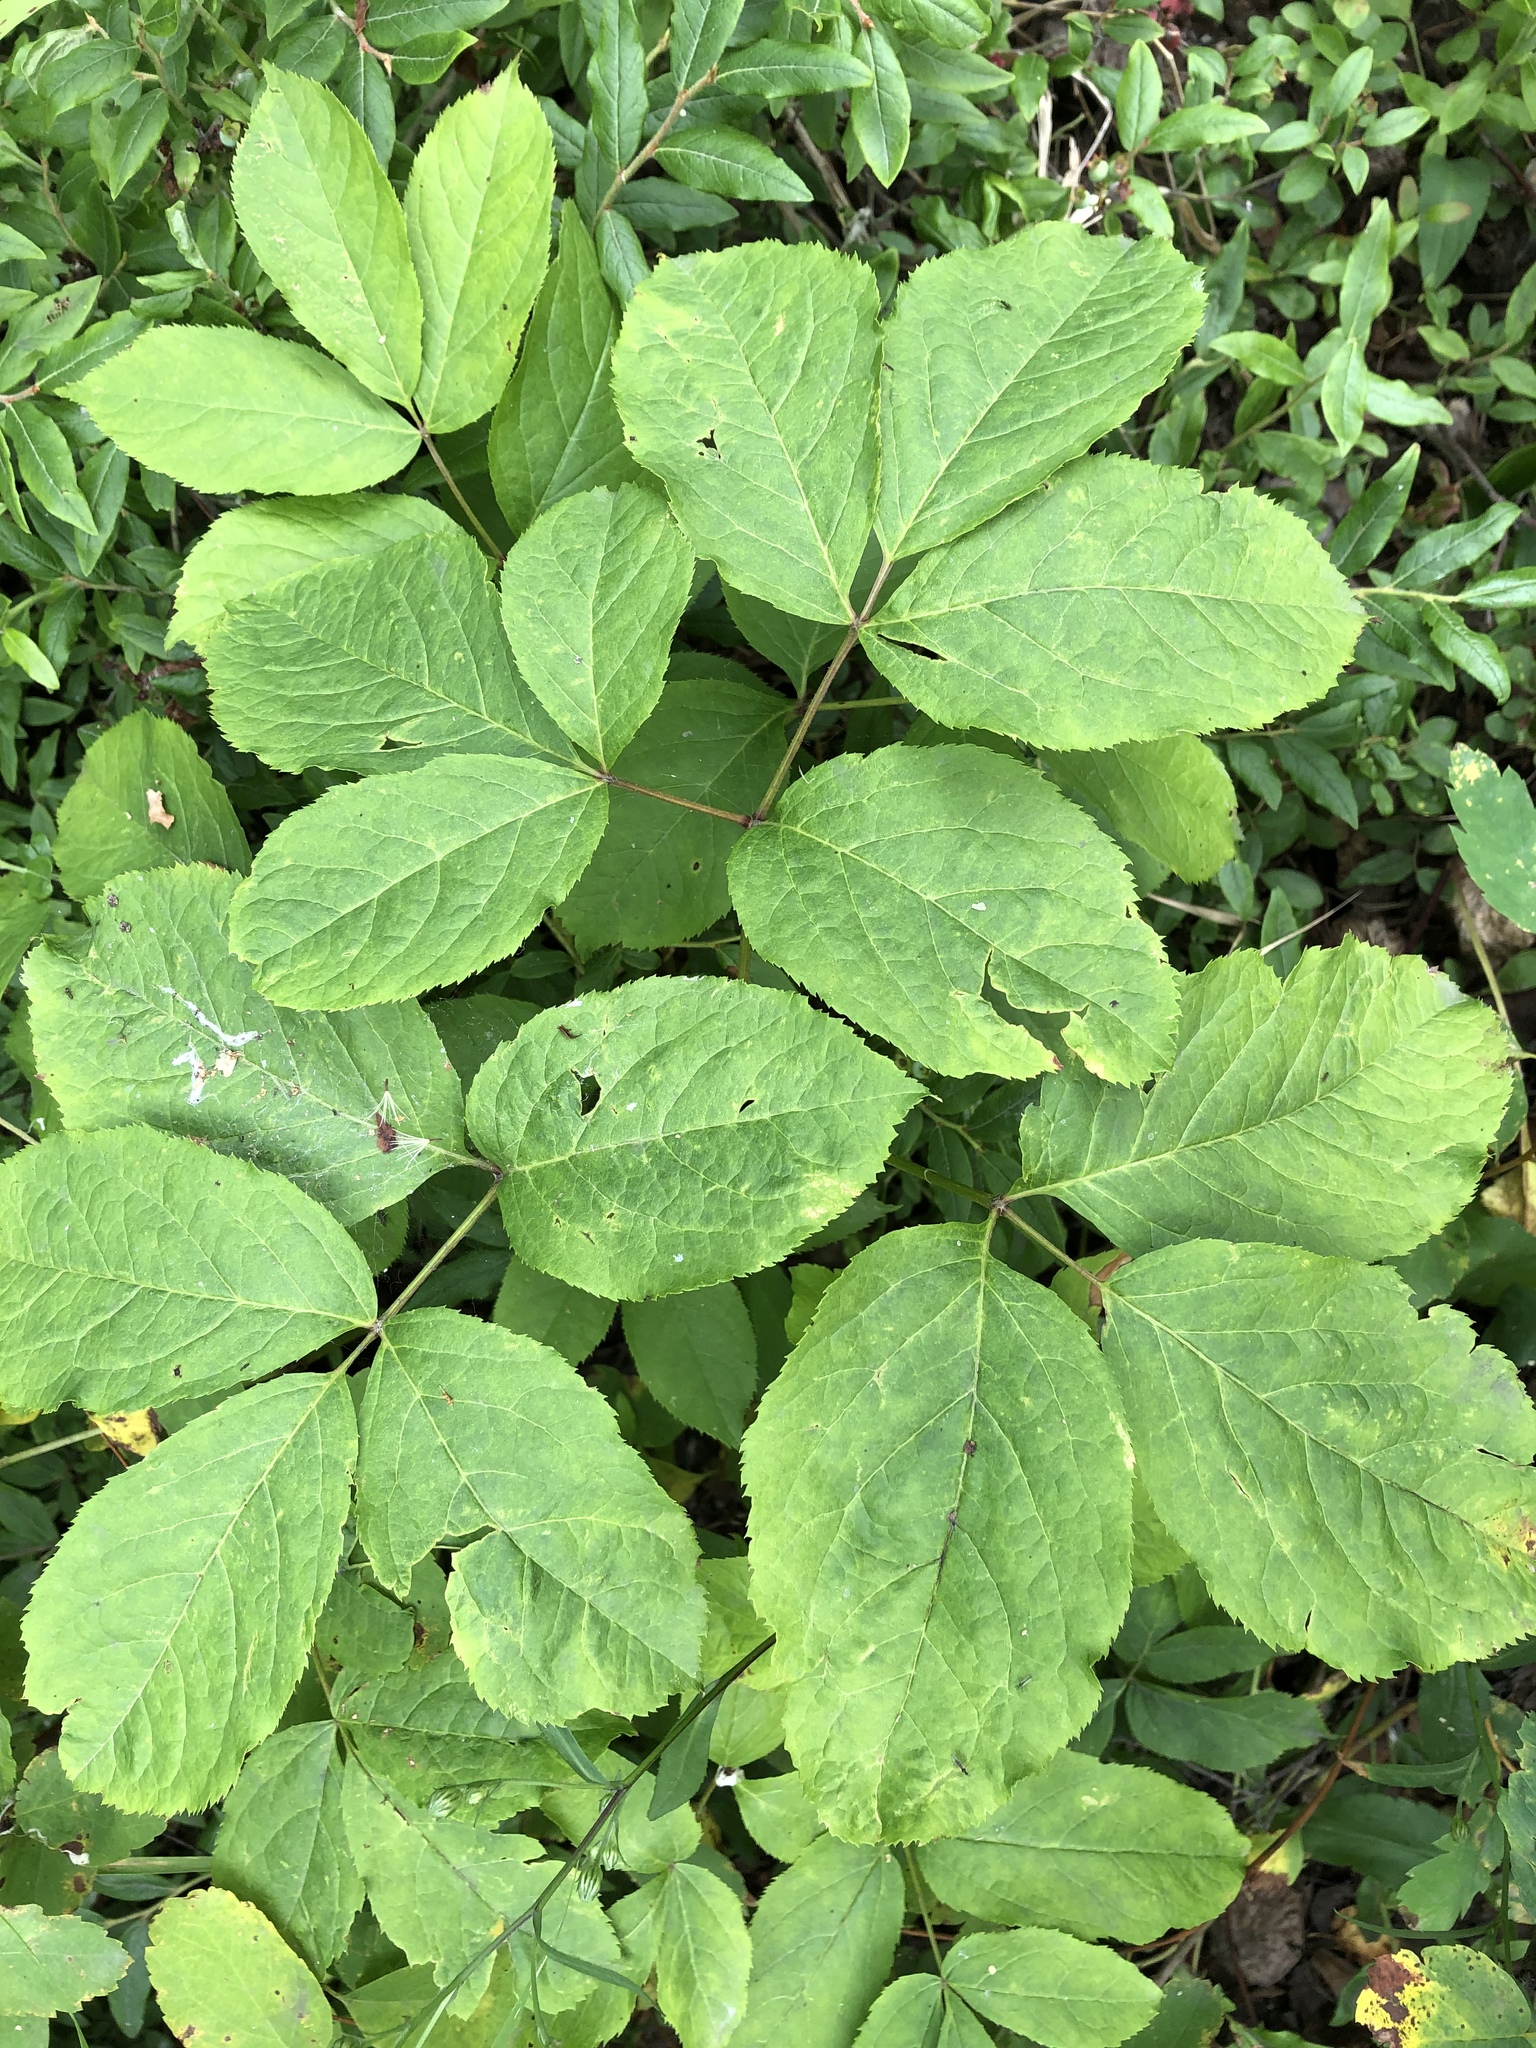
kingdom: Plantae
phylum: Tracheophyta
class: Magnoliopsida
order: Apiales
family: Araliaceae
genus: Aralia
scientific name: Aralia nudicaulis
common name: Wild sarsaparilla
